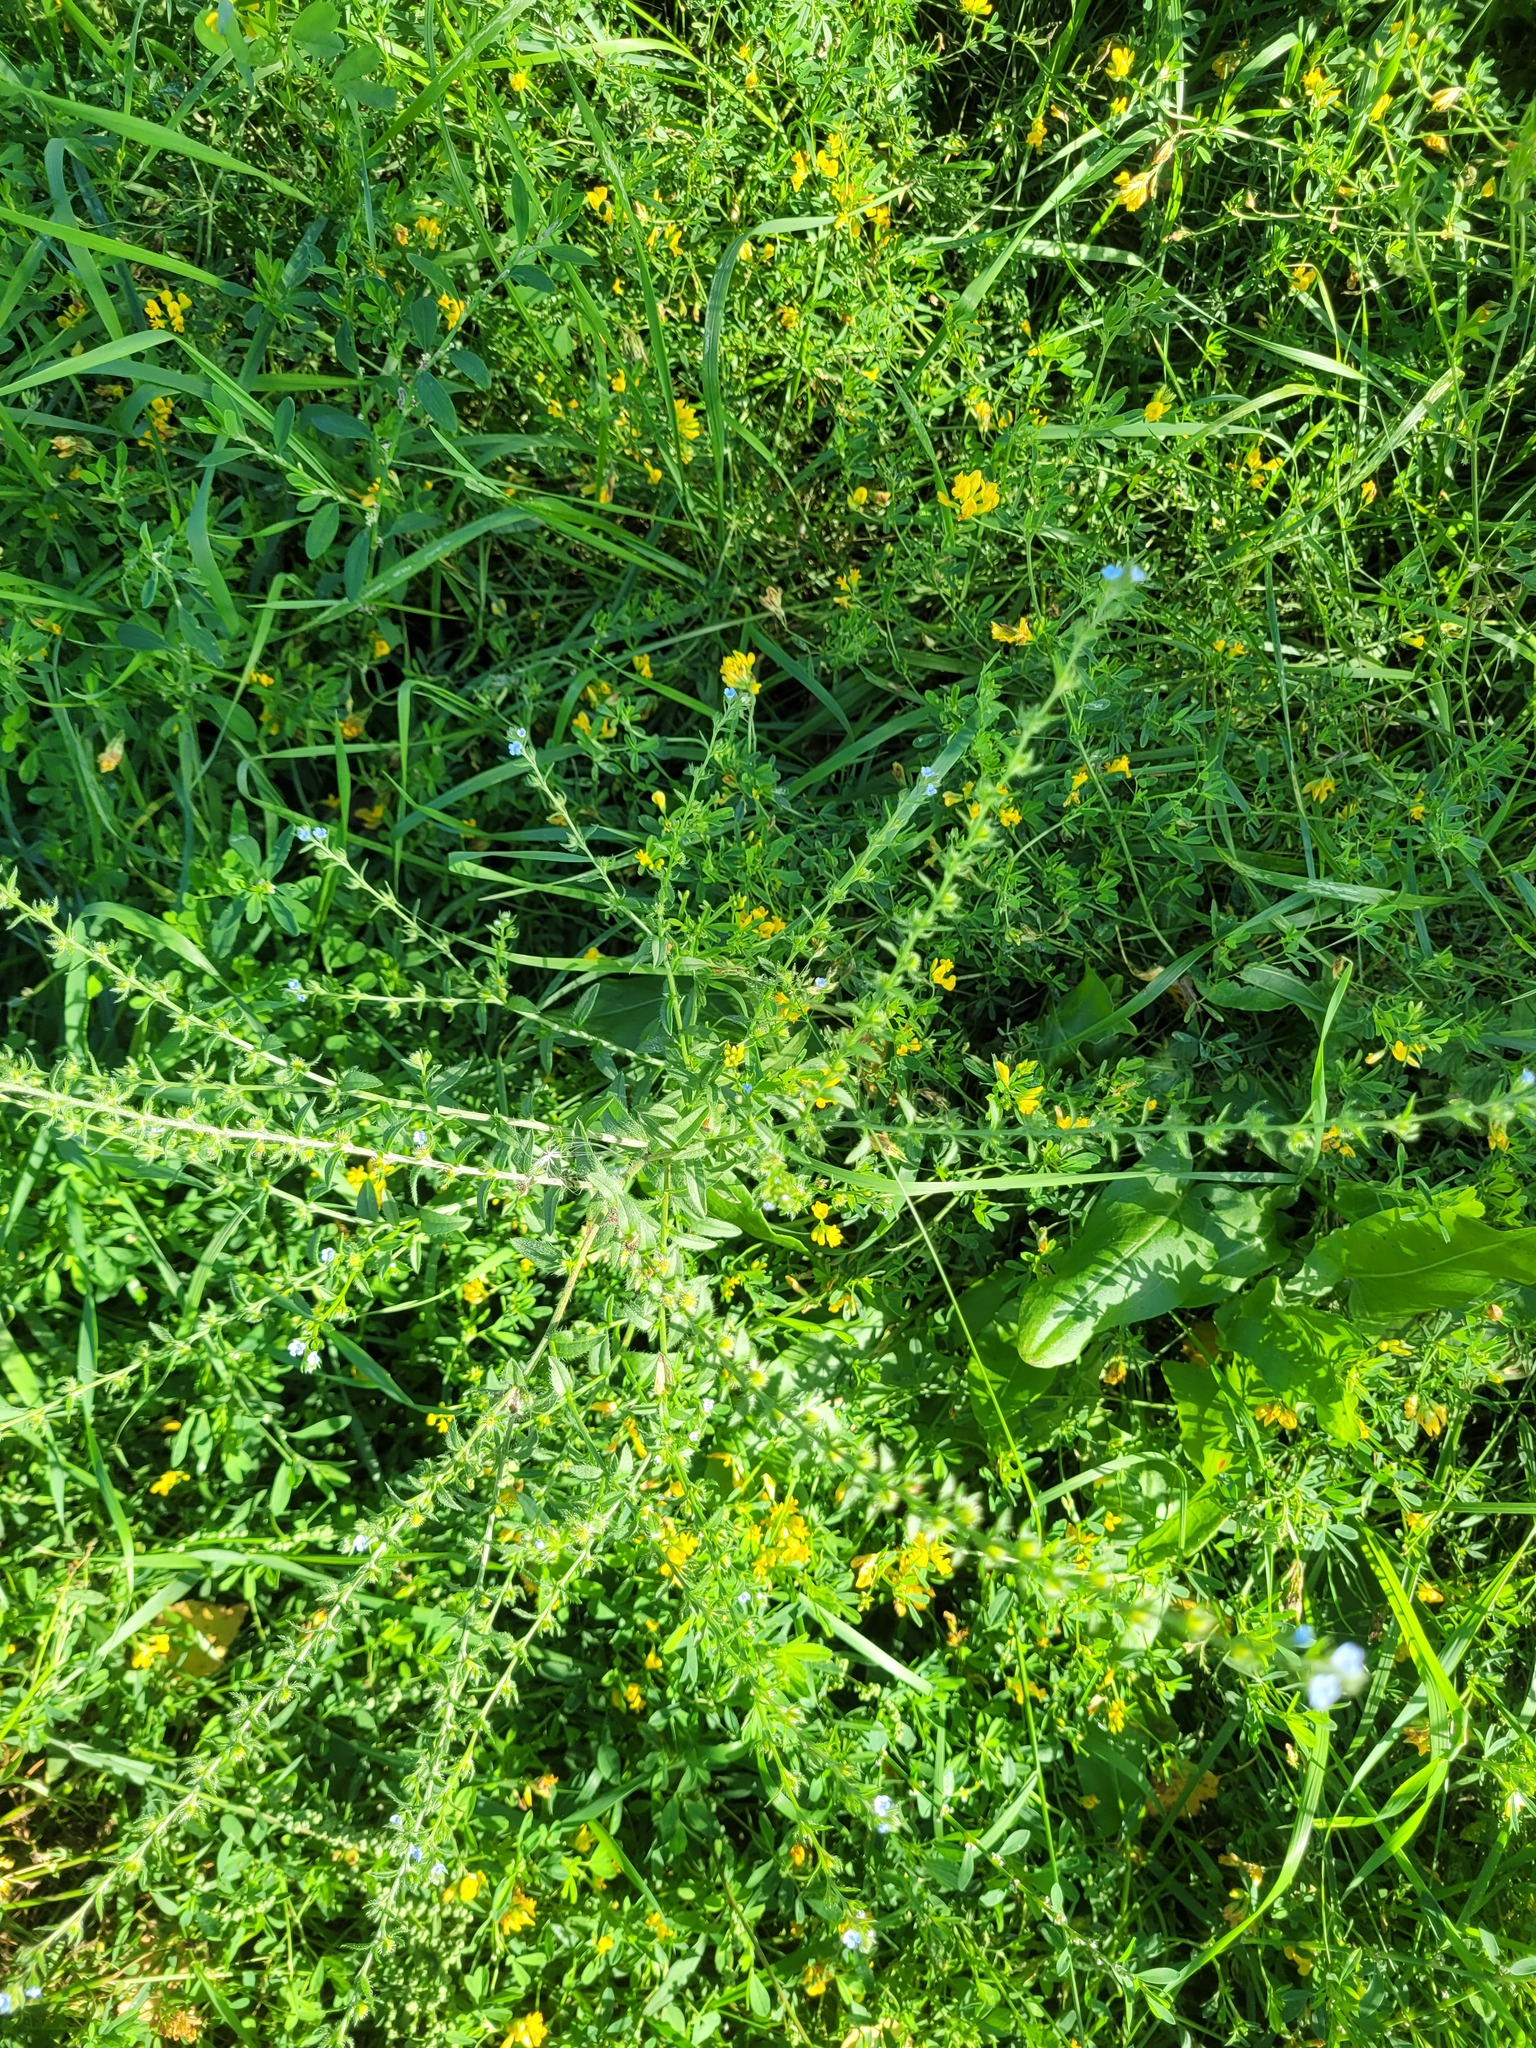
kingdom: Plantae
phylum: Tracheophyta
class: Magnoliopsida
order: Boraginales
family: Boraginaceae
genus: Lappula
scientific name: Lappula squarrosa
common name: European stickseed
